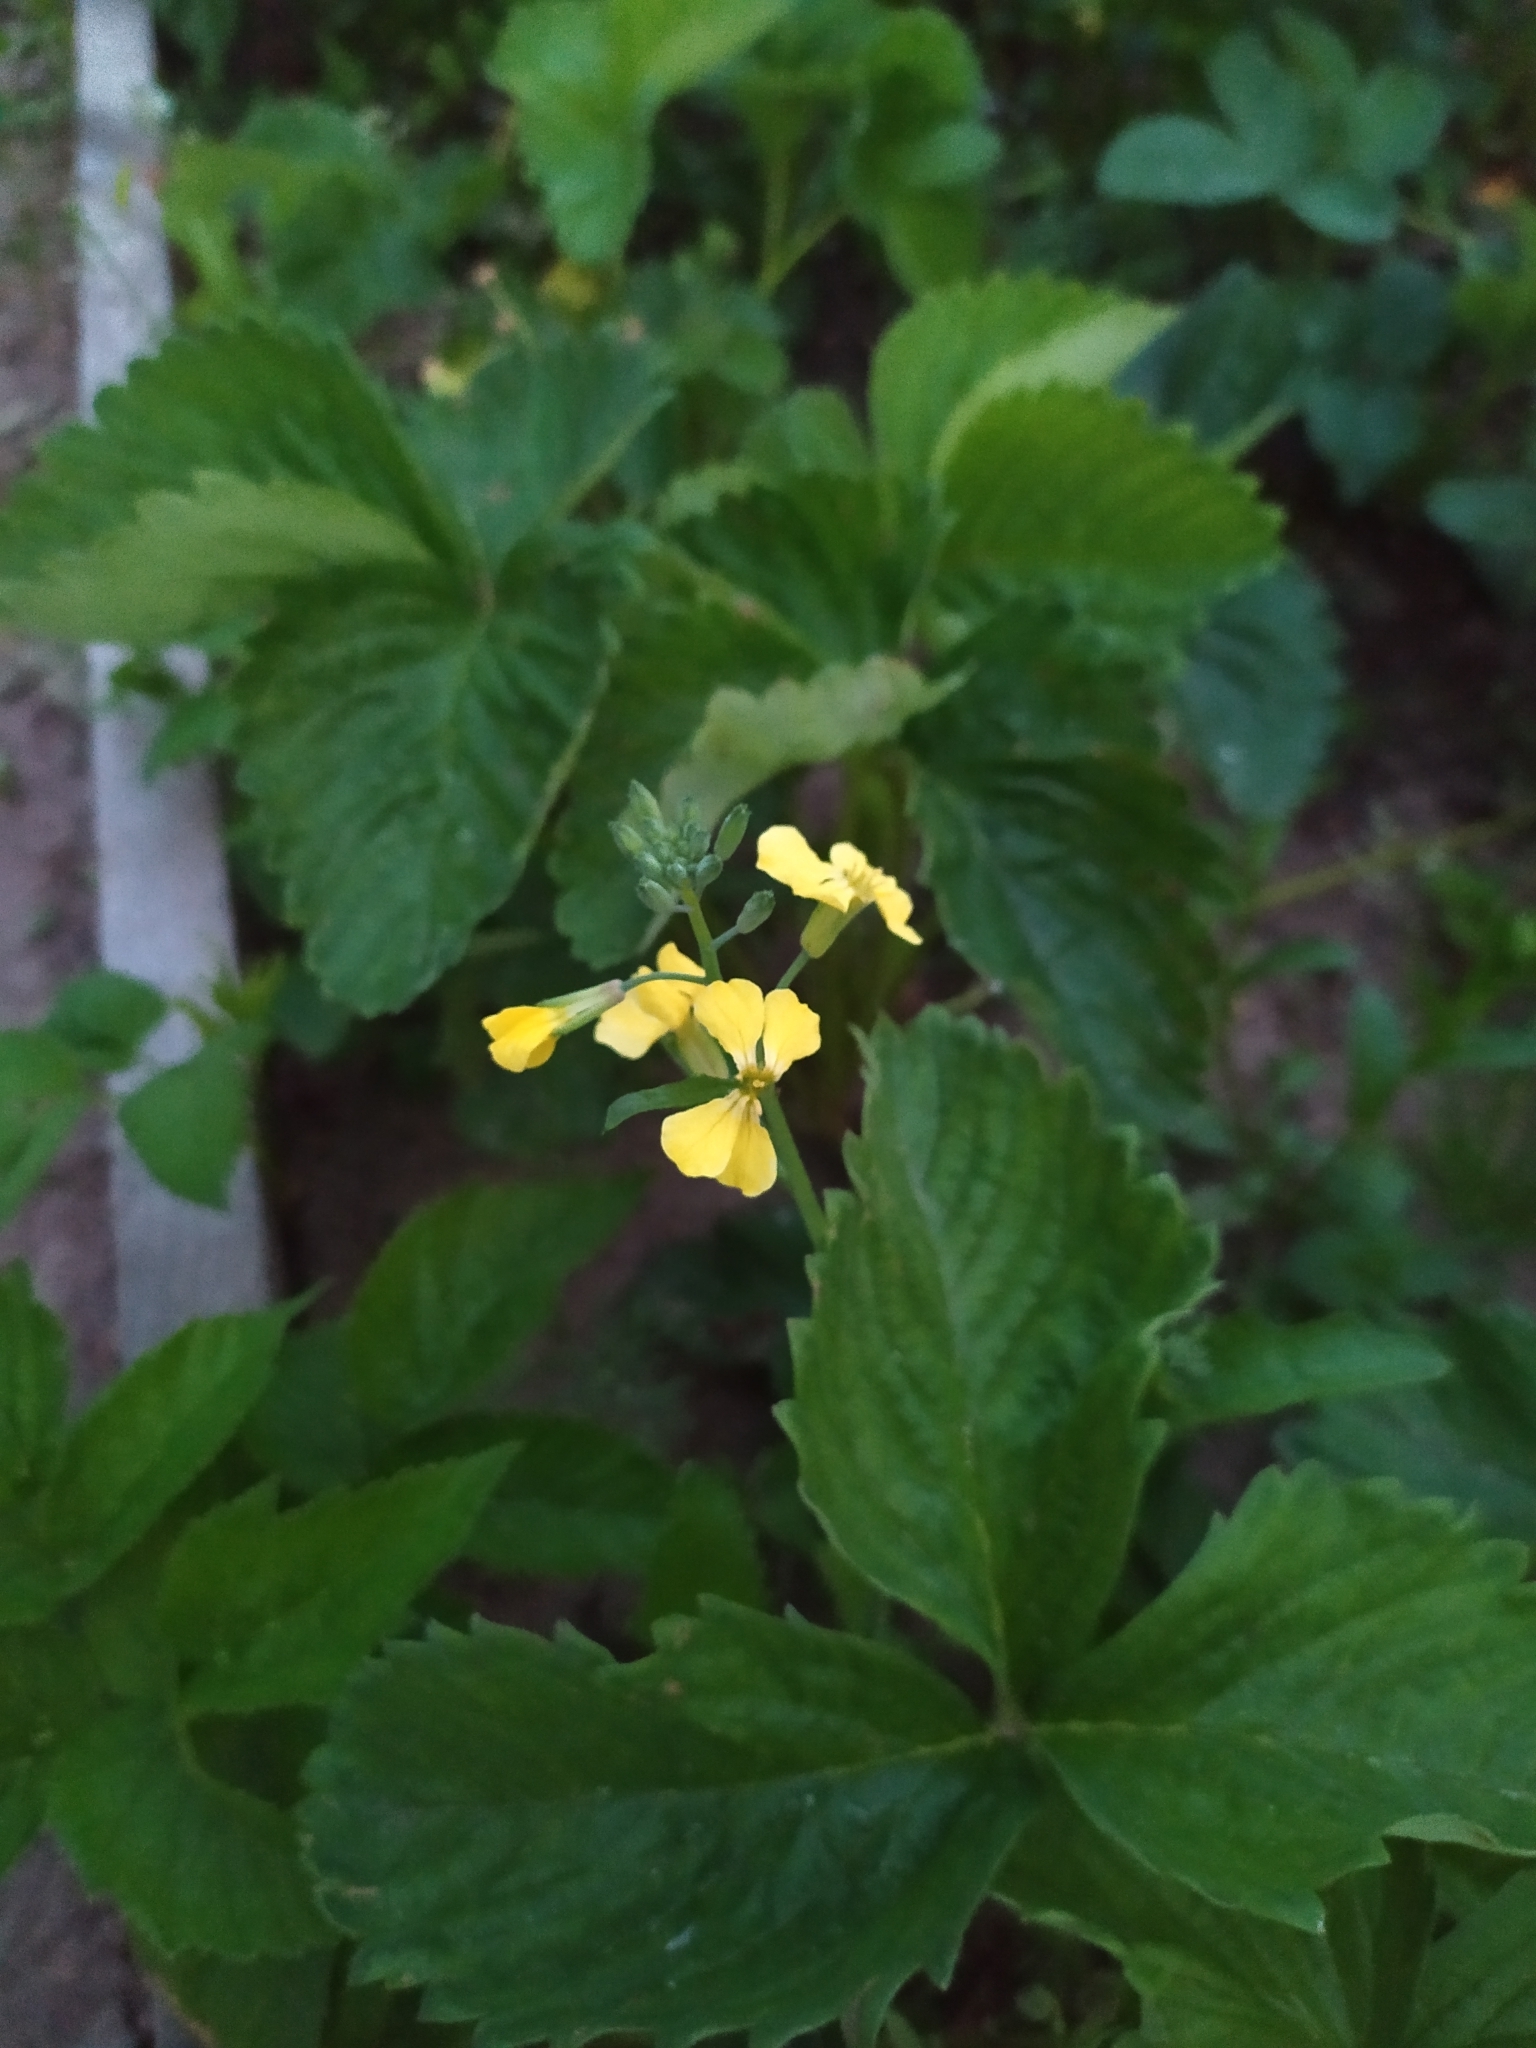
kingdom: Plantae
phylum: Tracheophyta
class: Magnoliopsida
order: Brassicales
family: Brassicaceae
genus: Raphanus
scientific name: Raphanus raphanistrum
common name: Wild radish
